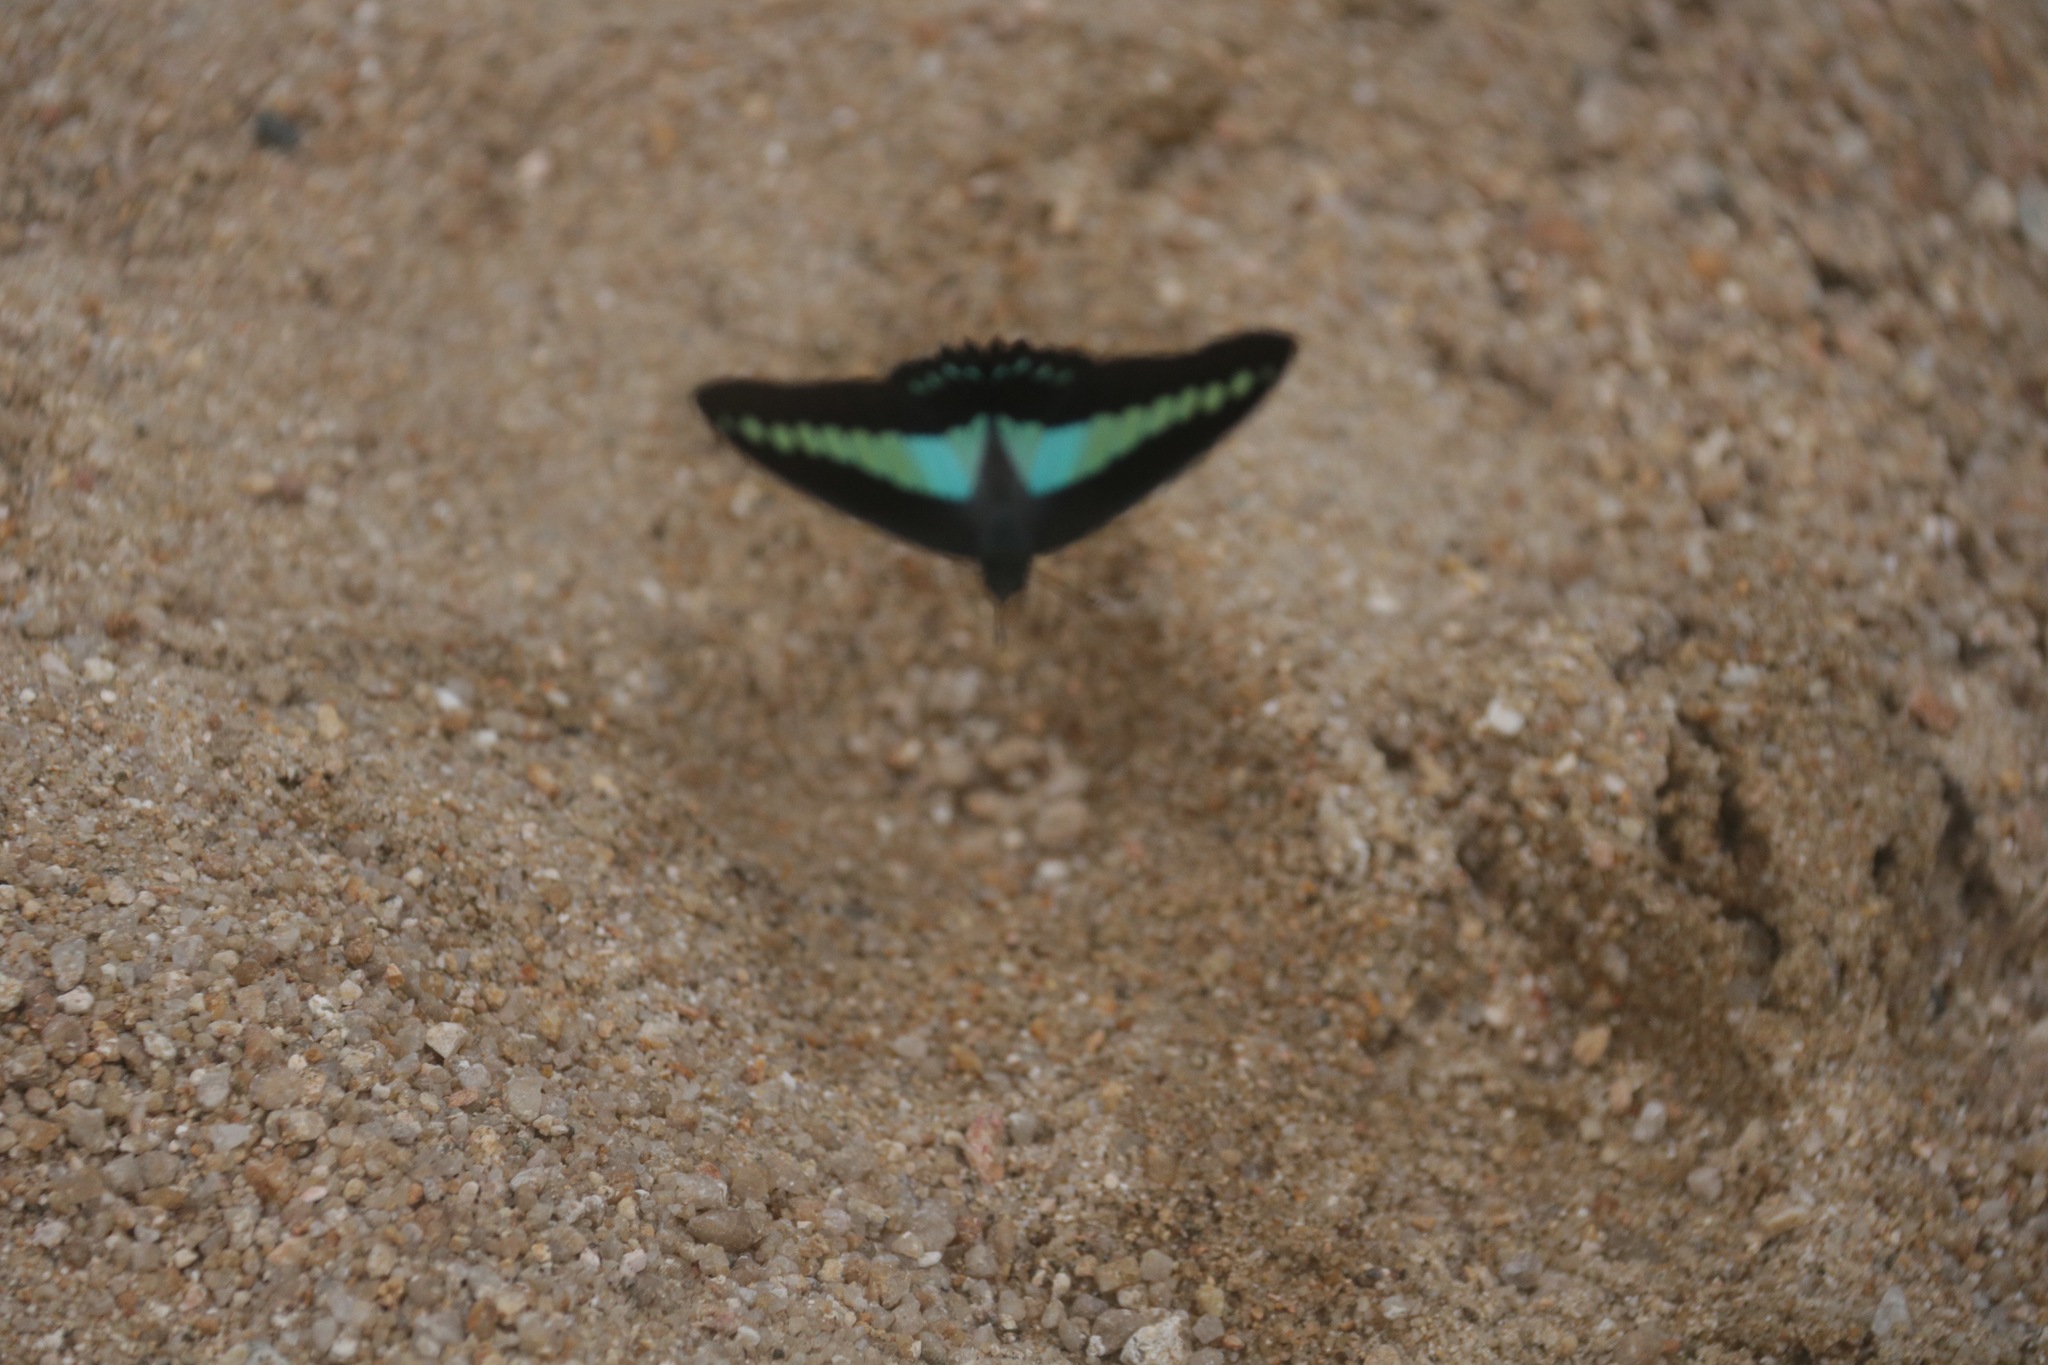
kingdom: Fungi
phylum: Ascomycota
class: Sordariomycetes
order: Microascales
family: Microascaceae
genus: Graphium
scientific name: Graphium sarpedon
